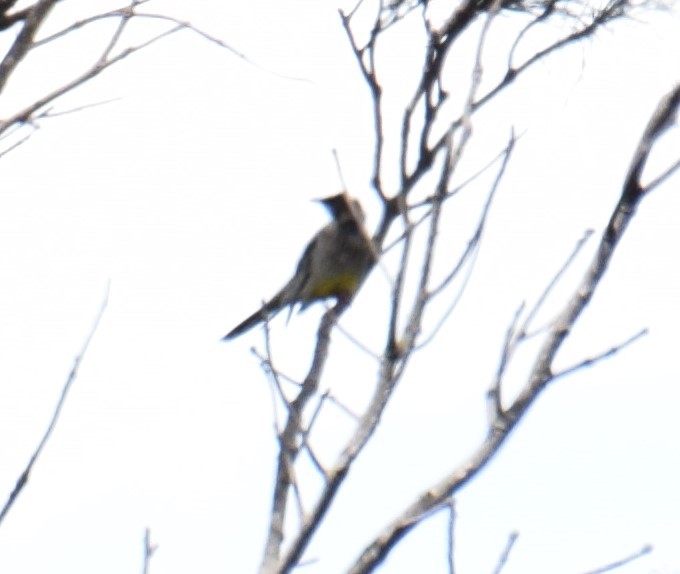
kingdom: Animalia
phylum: Chordata
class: Aves
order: Passeriformes
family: Meliphagidae
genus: Anthochaera
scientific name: Anthochaera carunculata
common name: Red wattlebird
